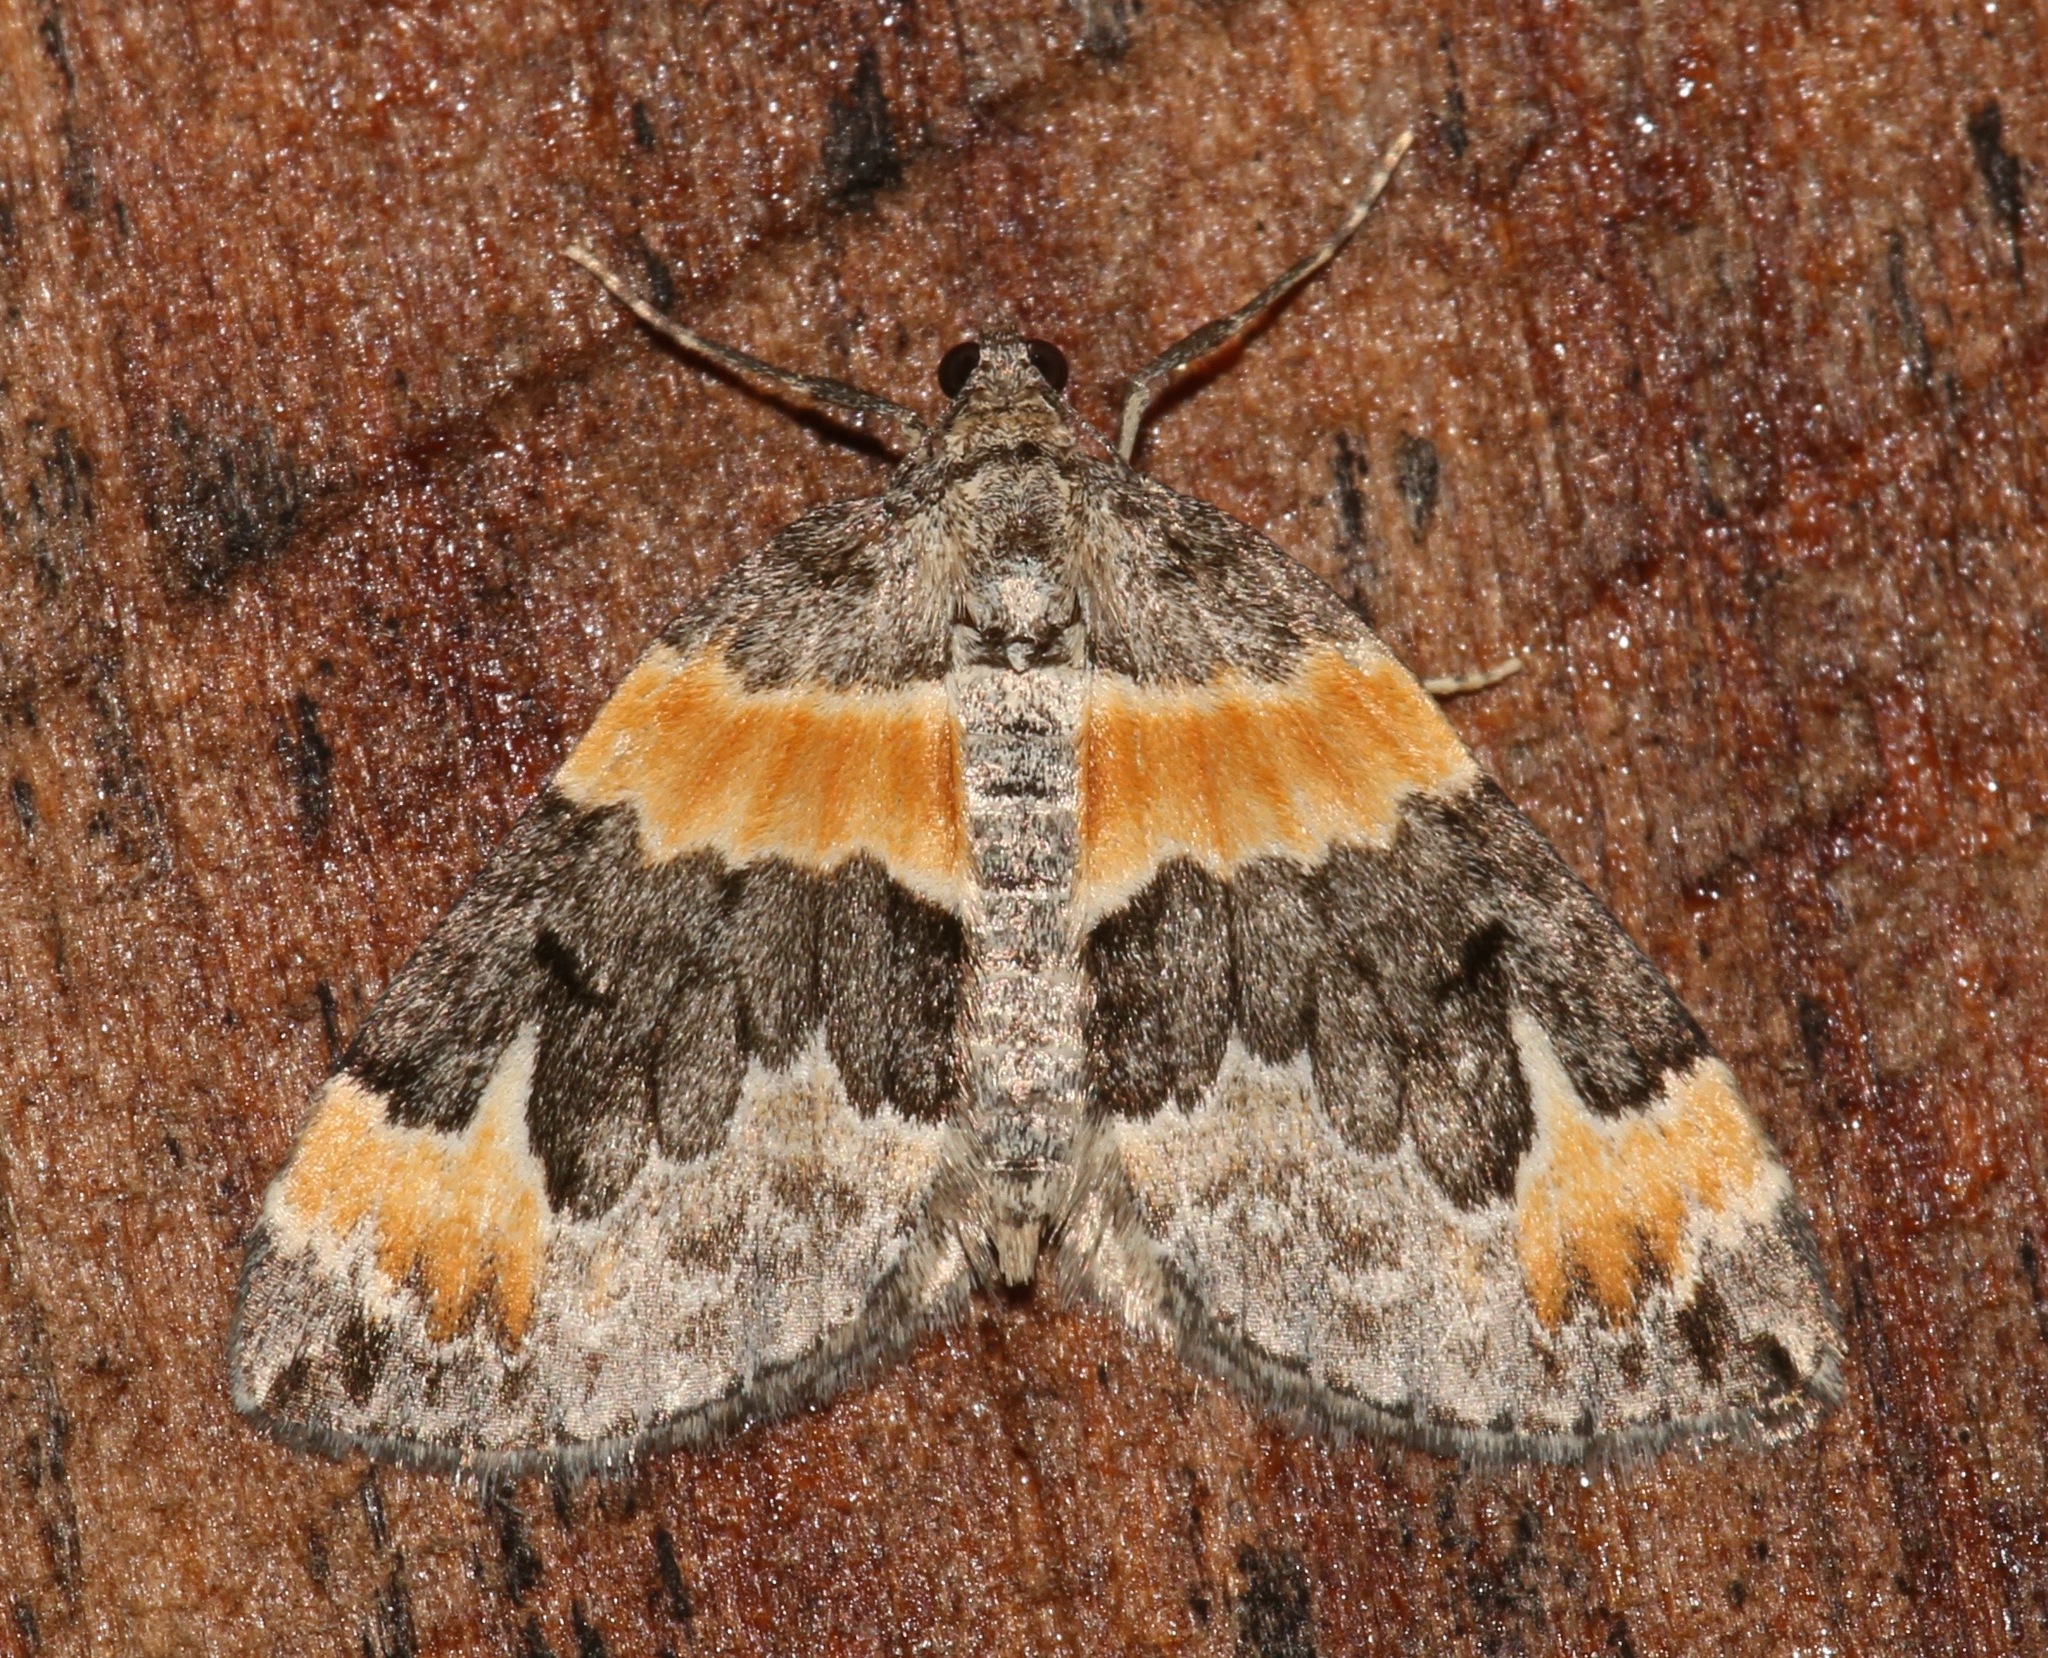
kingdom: Animalia
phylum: Arthropoda
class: Insecta
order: Lepidoptera
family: Geometridae
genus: Dysstroma
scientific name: Dysstroma hersiliata
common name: Orange-barred carpet
